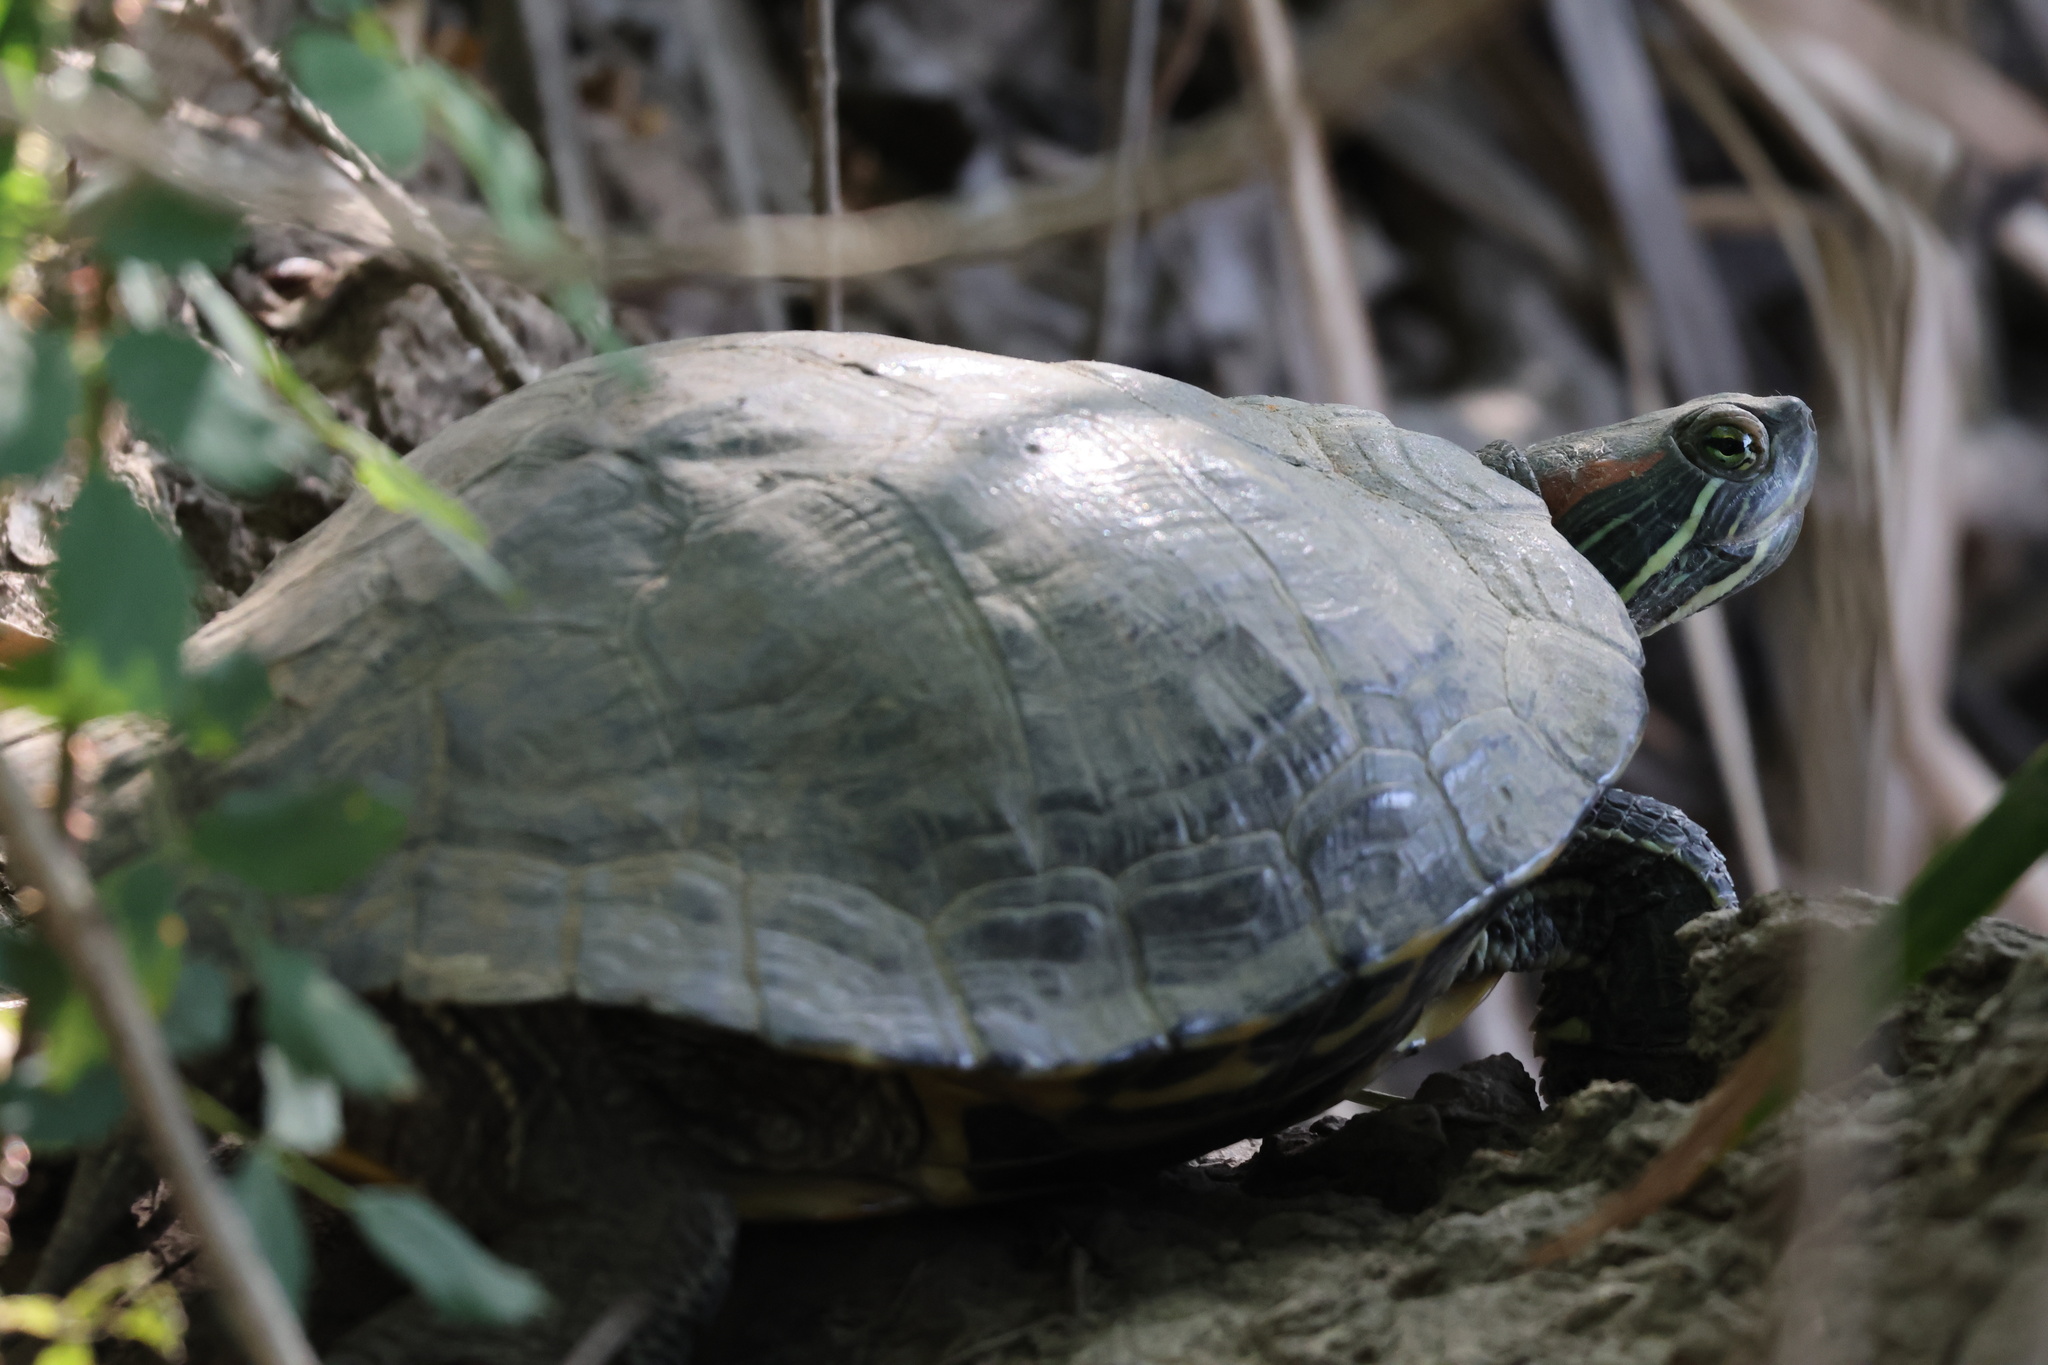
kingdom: Animalia
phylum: Chordata
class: Testudines
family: Emydidae
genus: Trachemys
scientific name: Trachemys scripta
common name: Slider
